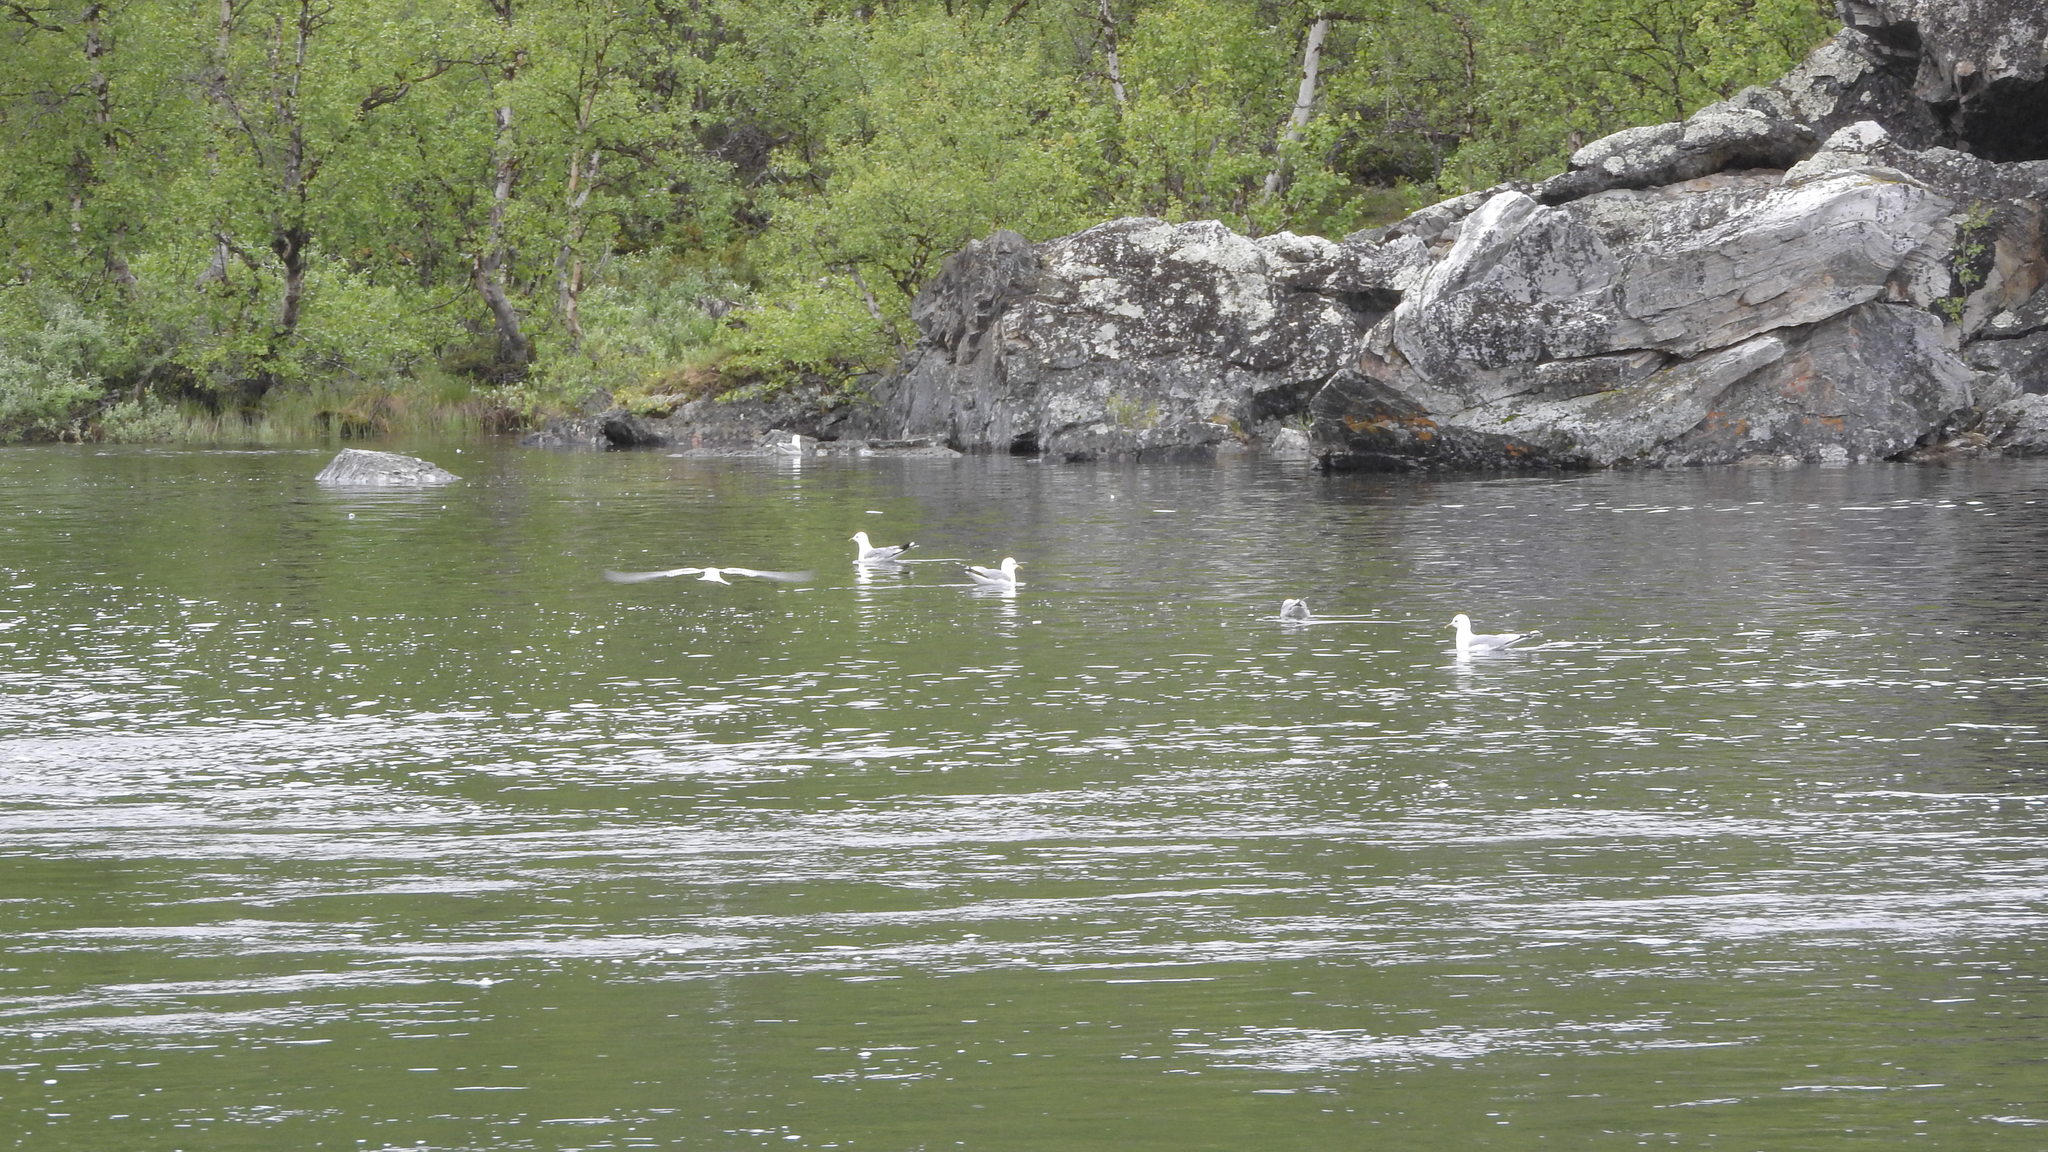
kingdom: Animalia
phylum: Chordata
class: Aves
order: Charadriiformes
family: Laridae
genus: Larus
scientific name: Larus canus
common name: Mew gull
